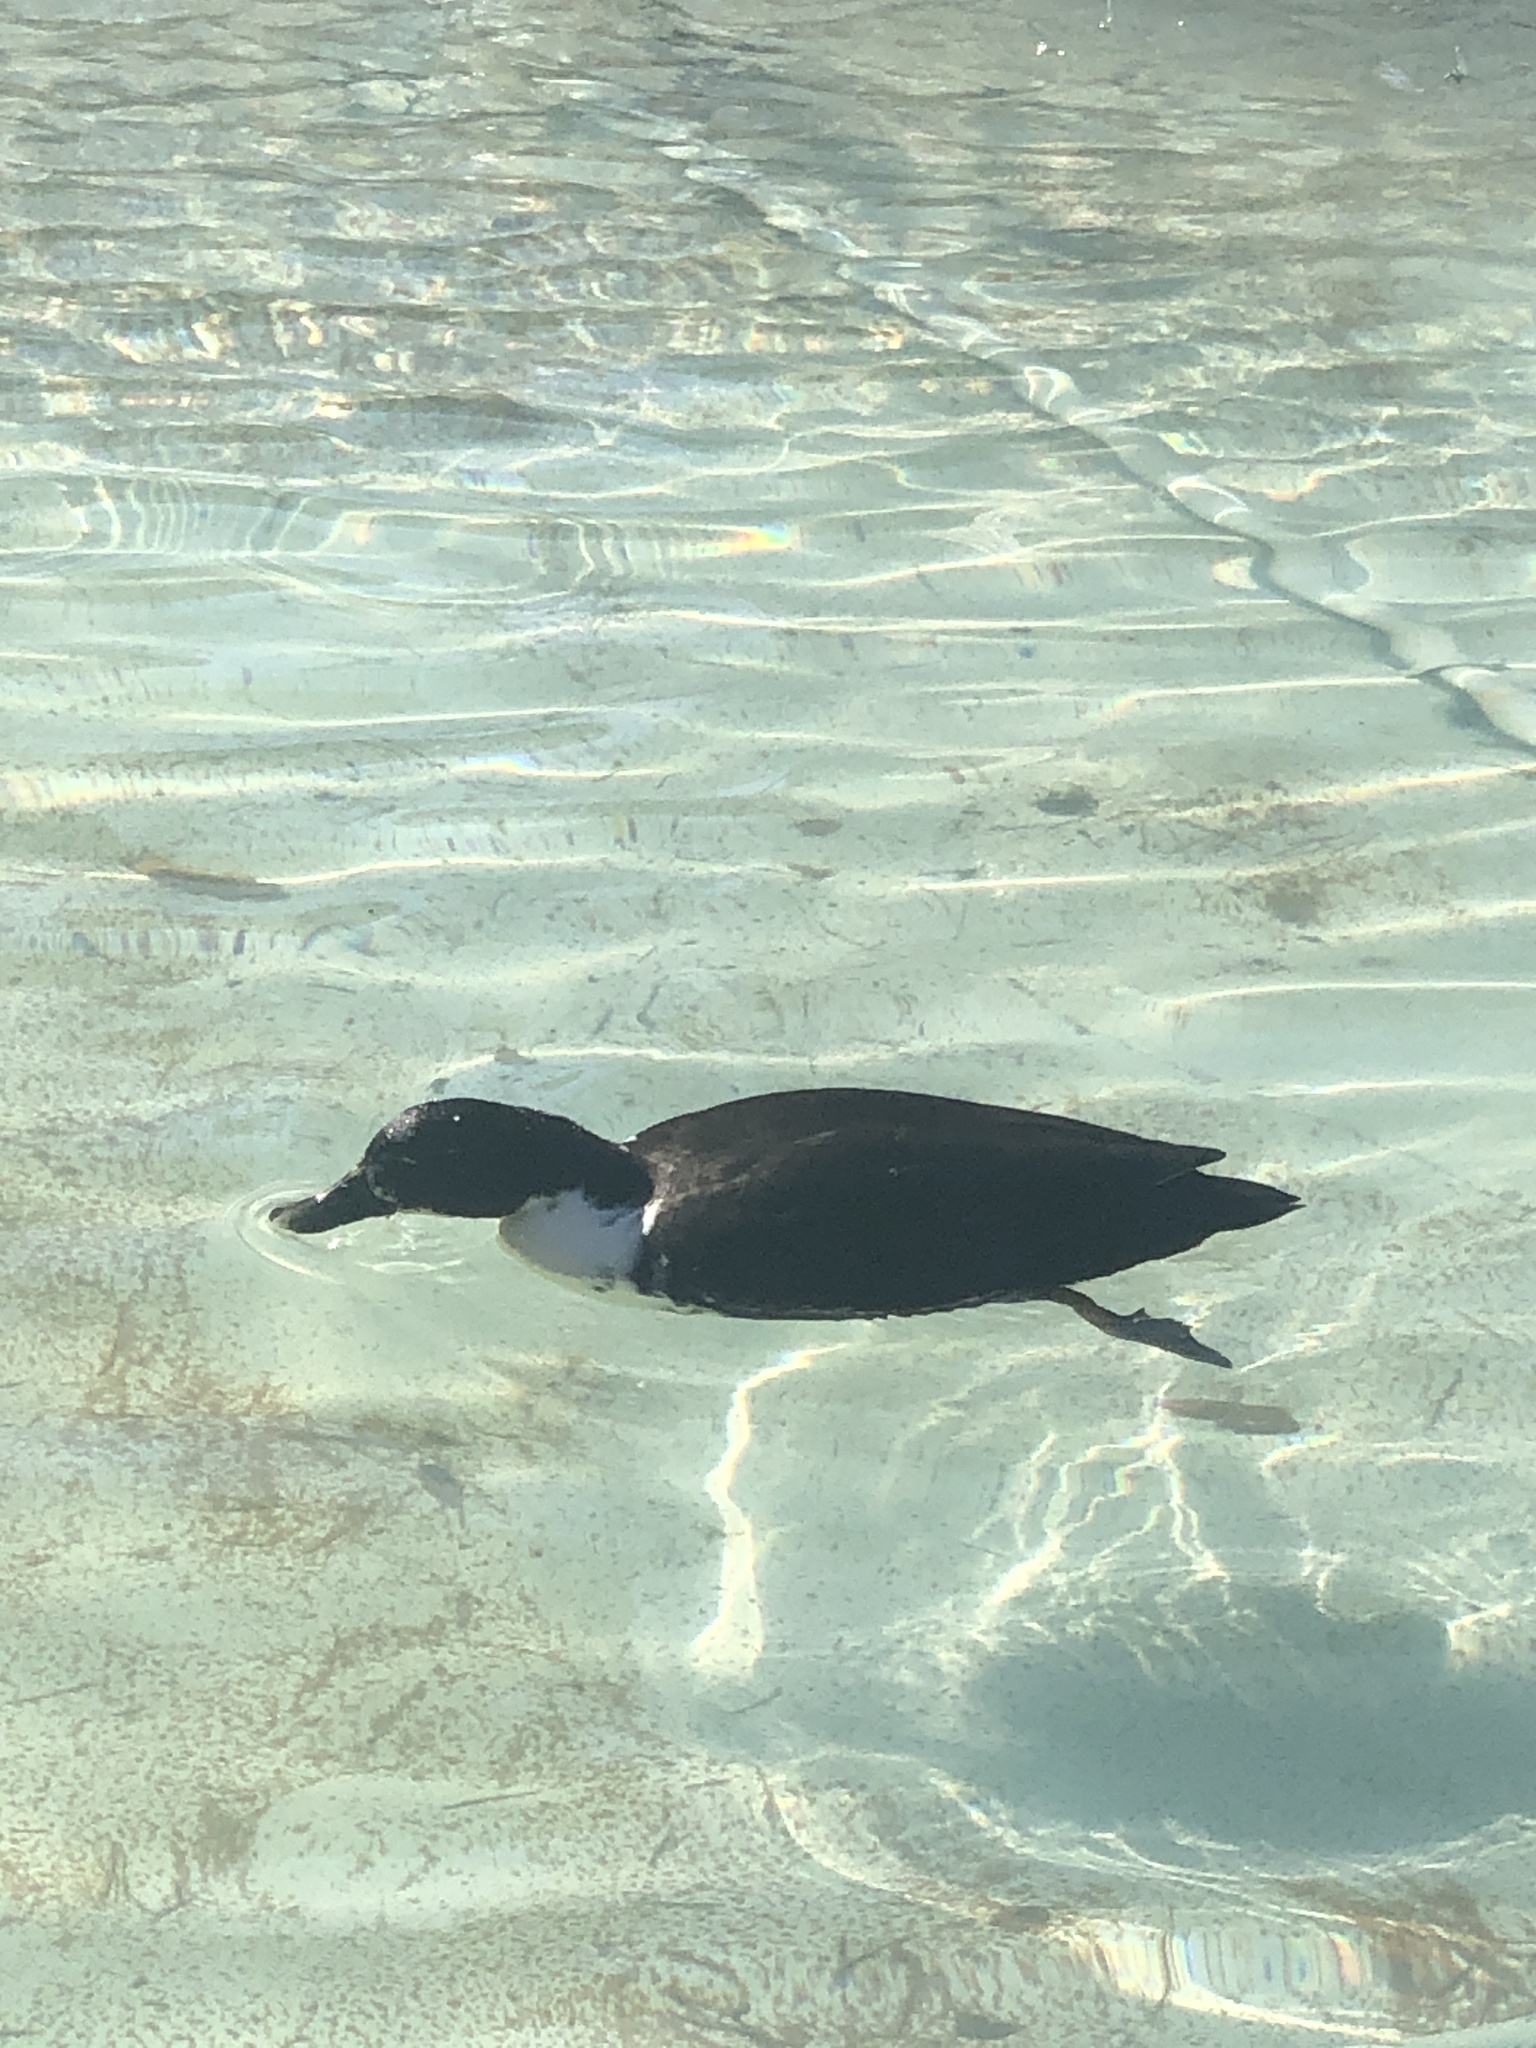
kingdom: Animalia
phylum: Chordata
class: Aves
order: Anseriformes
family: Anatidae
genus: Anas
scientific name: Anas platyrhynchos
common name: Mallard
